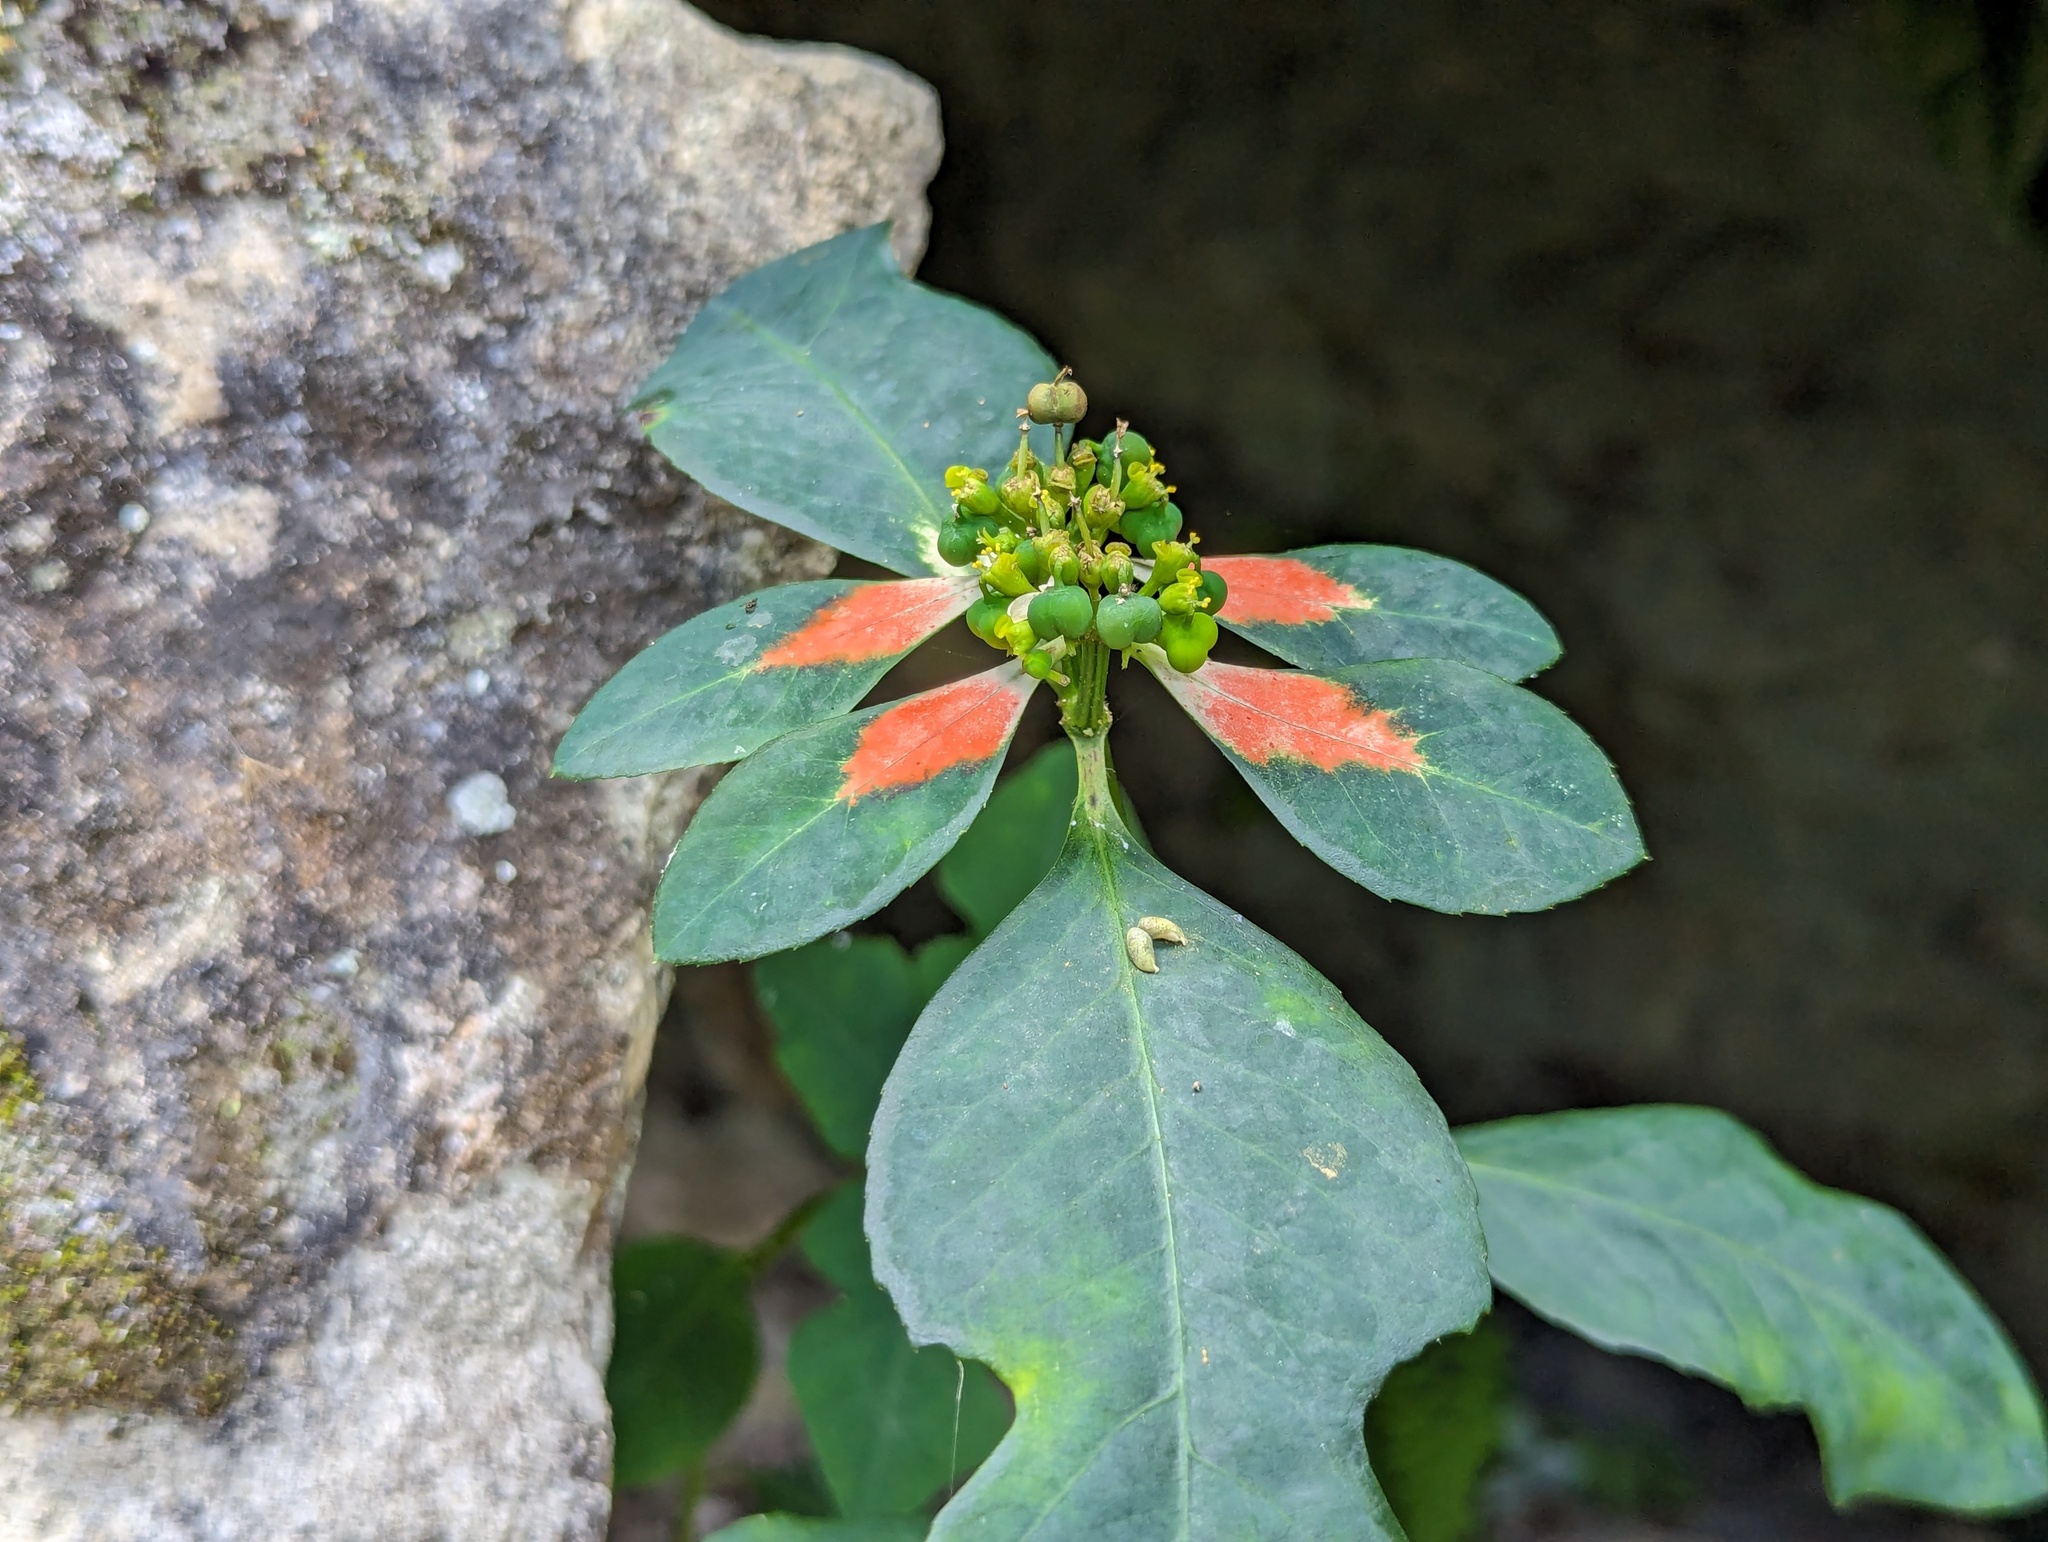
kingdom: Plantae
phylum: Tracheophyta
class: Magnoliopsida
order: Malpighiales
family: Euphorbiaceae
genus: Euphorbia
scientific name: Euphorbia heterophylla
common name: Mexican fireplant
